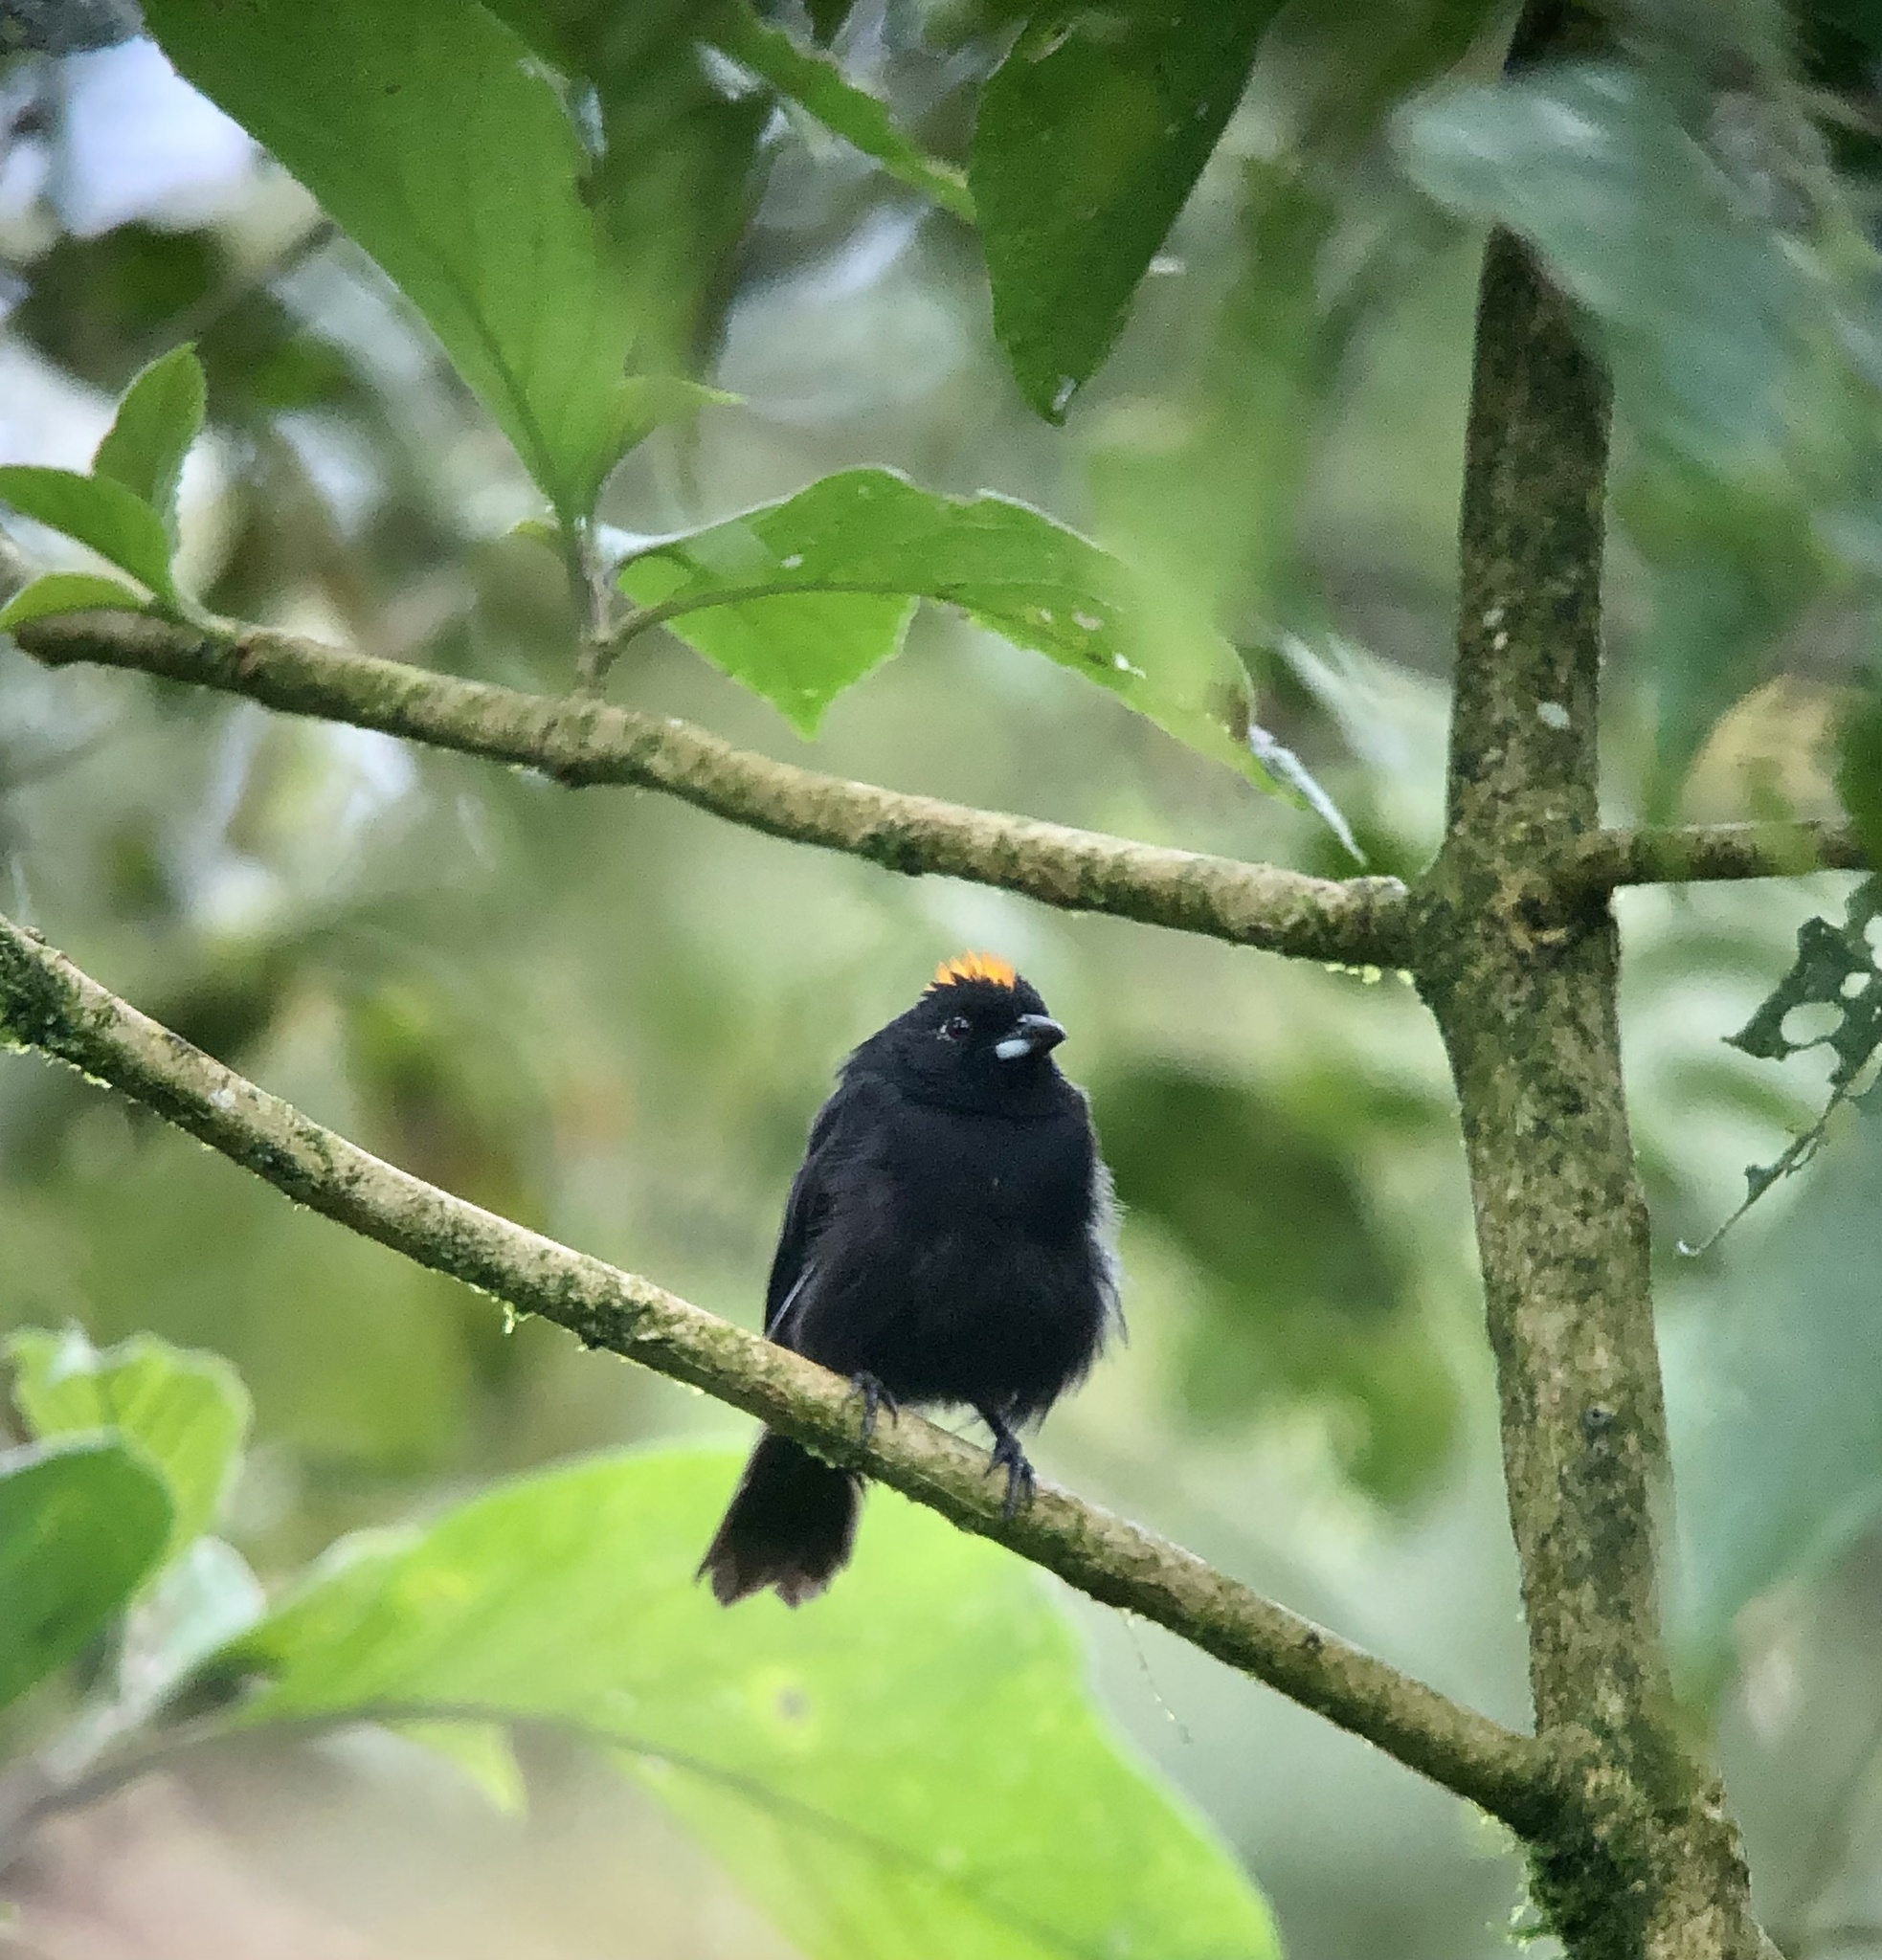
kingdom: Animalia
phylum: Chordata
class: Aves
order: Passeriformes
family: Thraupidae
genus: Tachyphonus
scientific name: Tachyphonus delatrii
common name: Tawny-crested tanager
